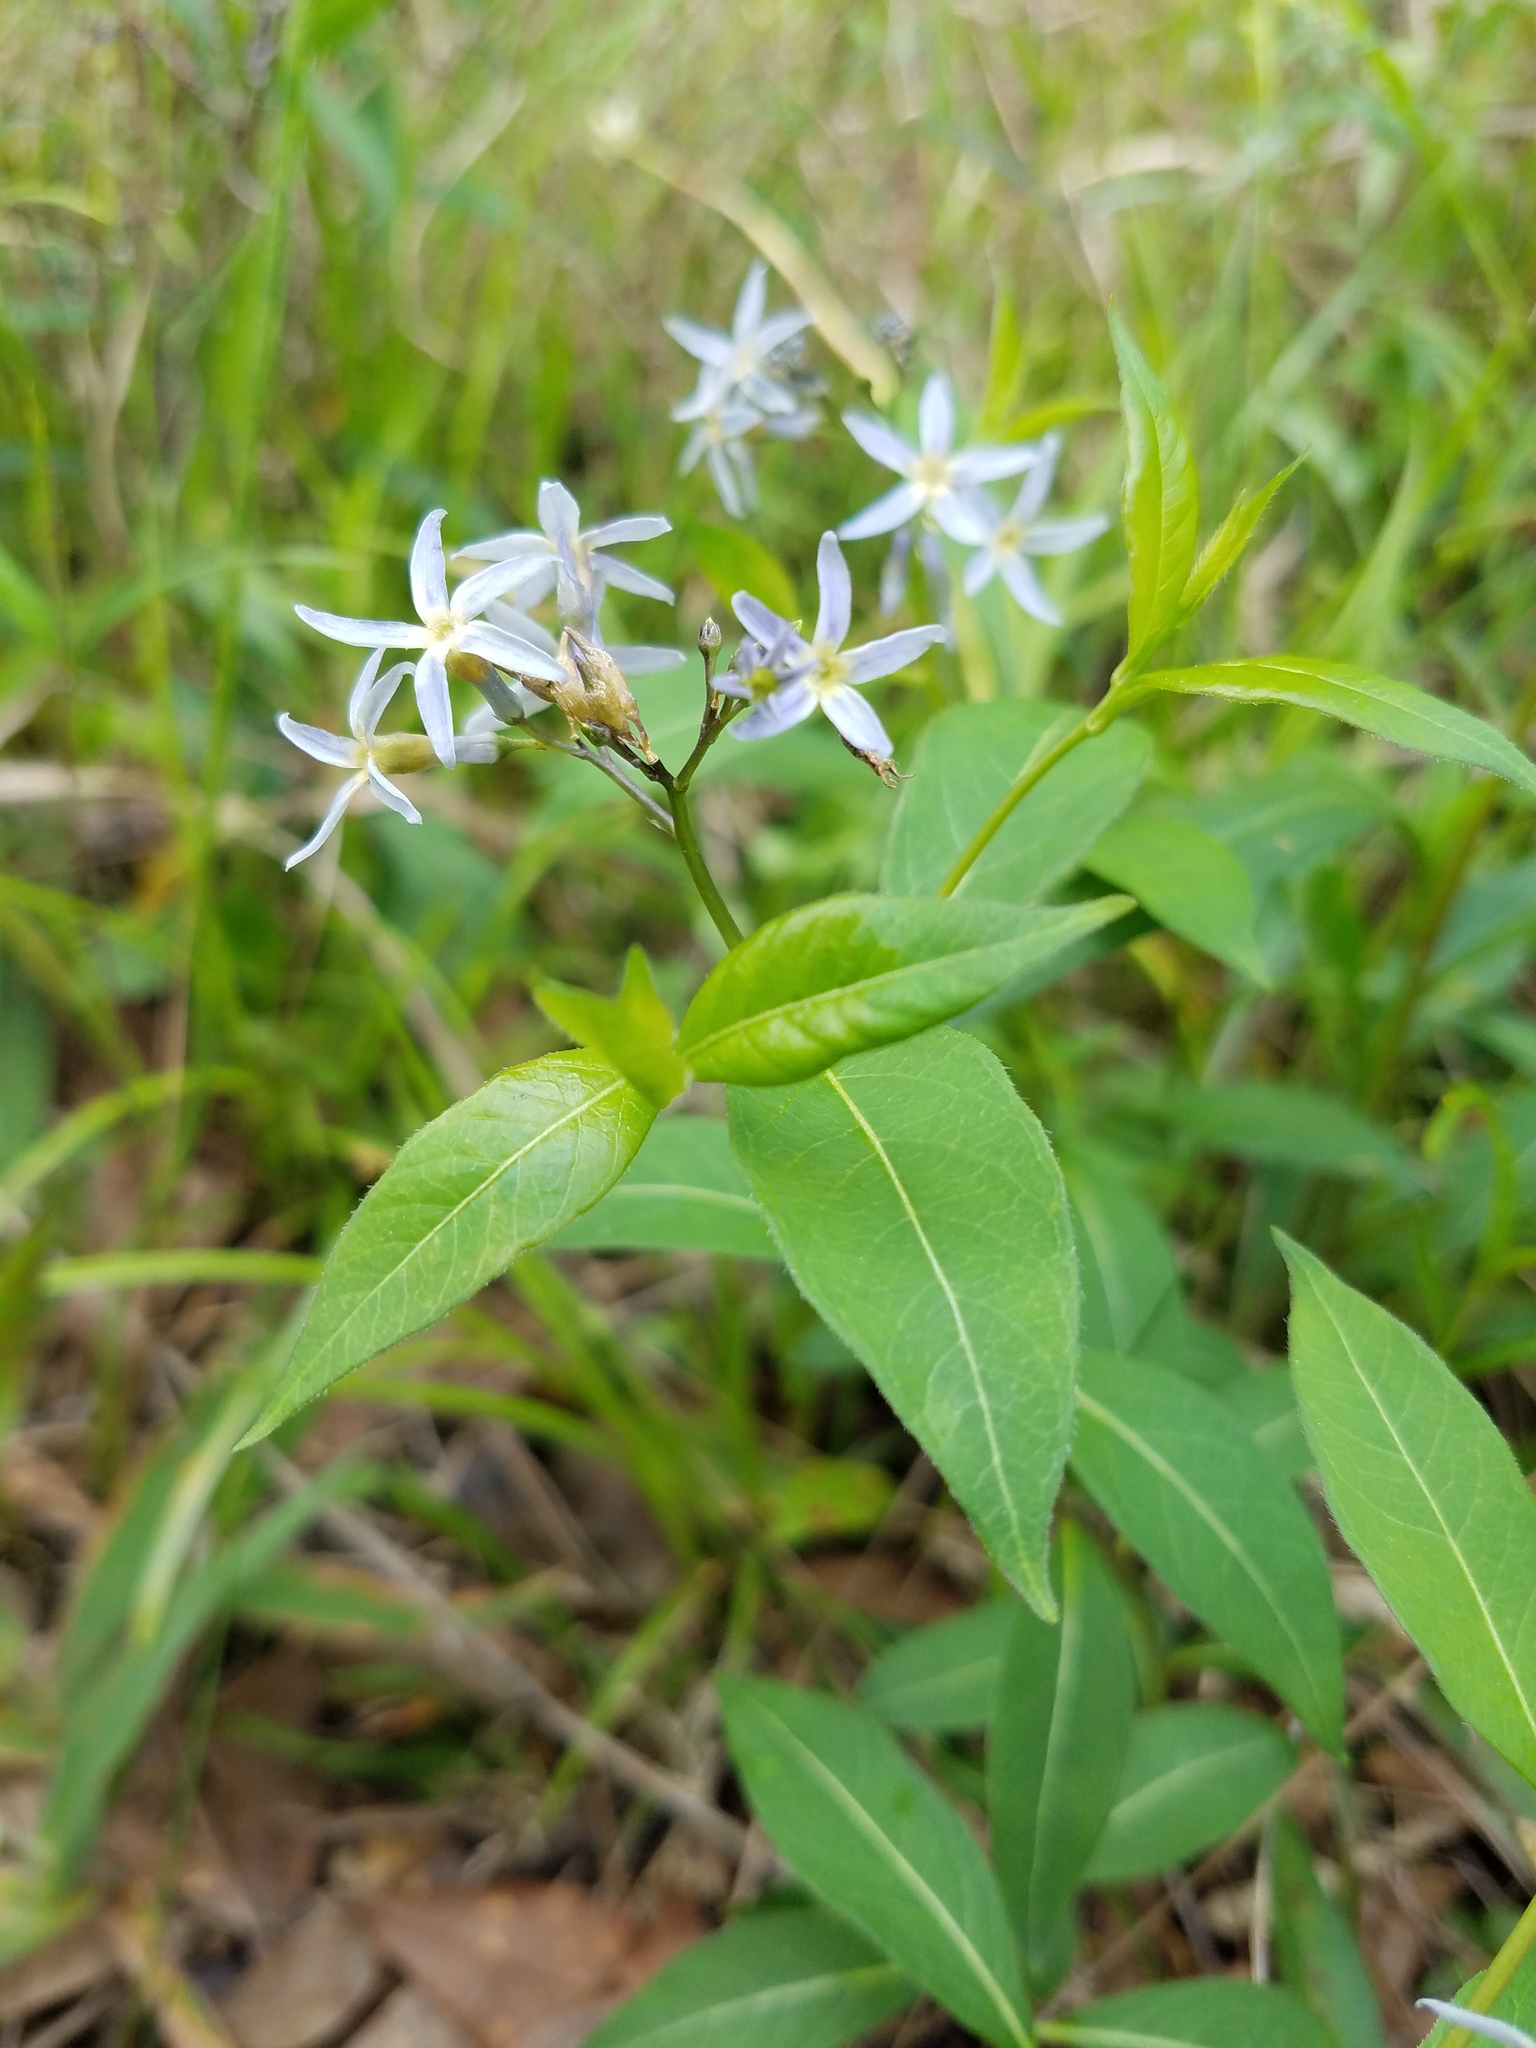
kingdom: Plantae
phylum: Tracheophyta
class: Magnoliopsida
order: Gentianales
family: Apocynaceae
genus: Amsonia
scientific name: Amsonia tabernaemontana
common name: Texas-star
